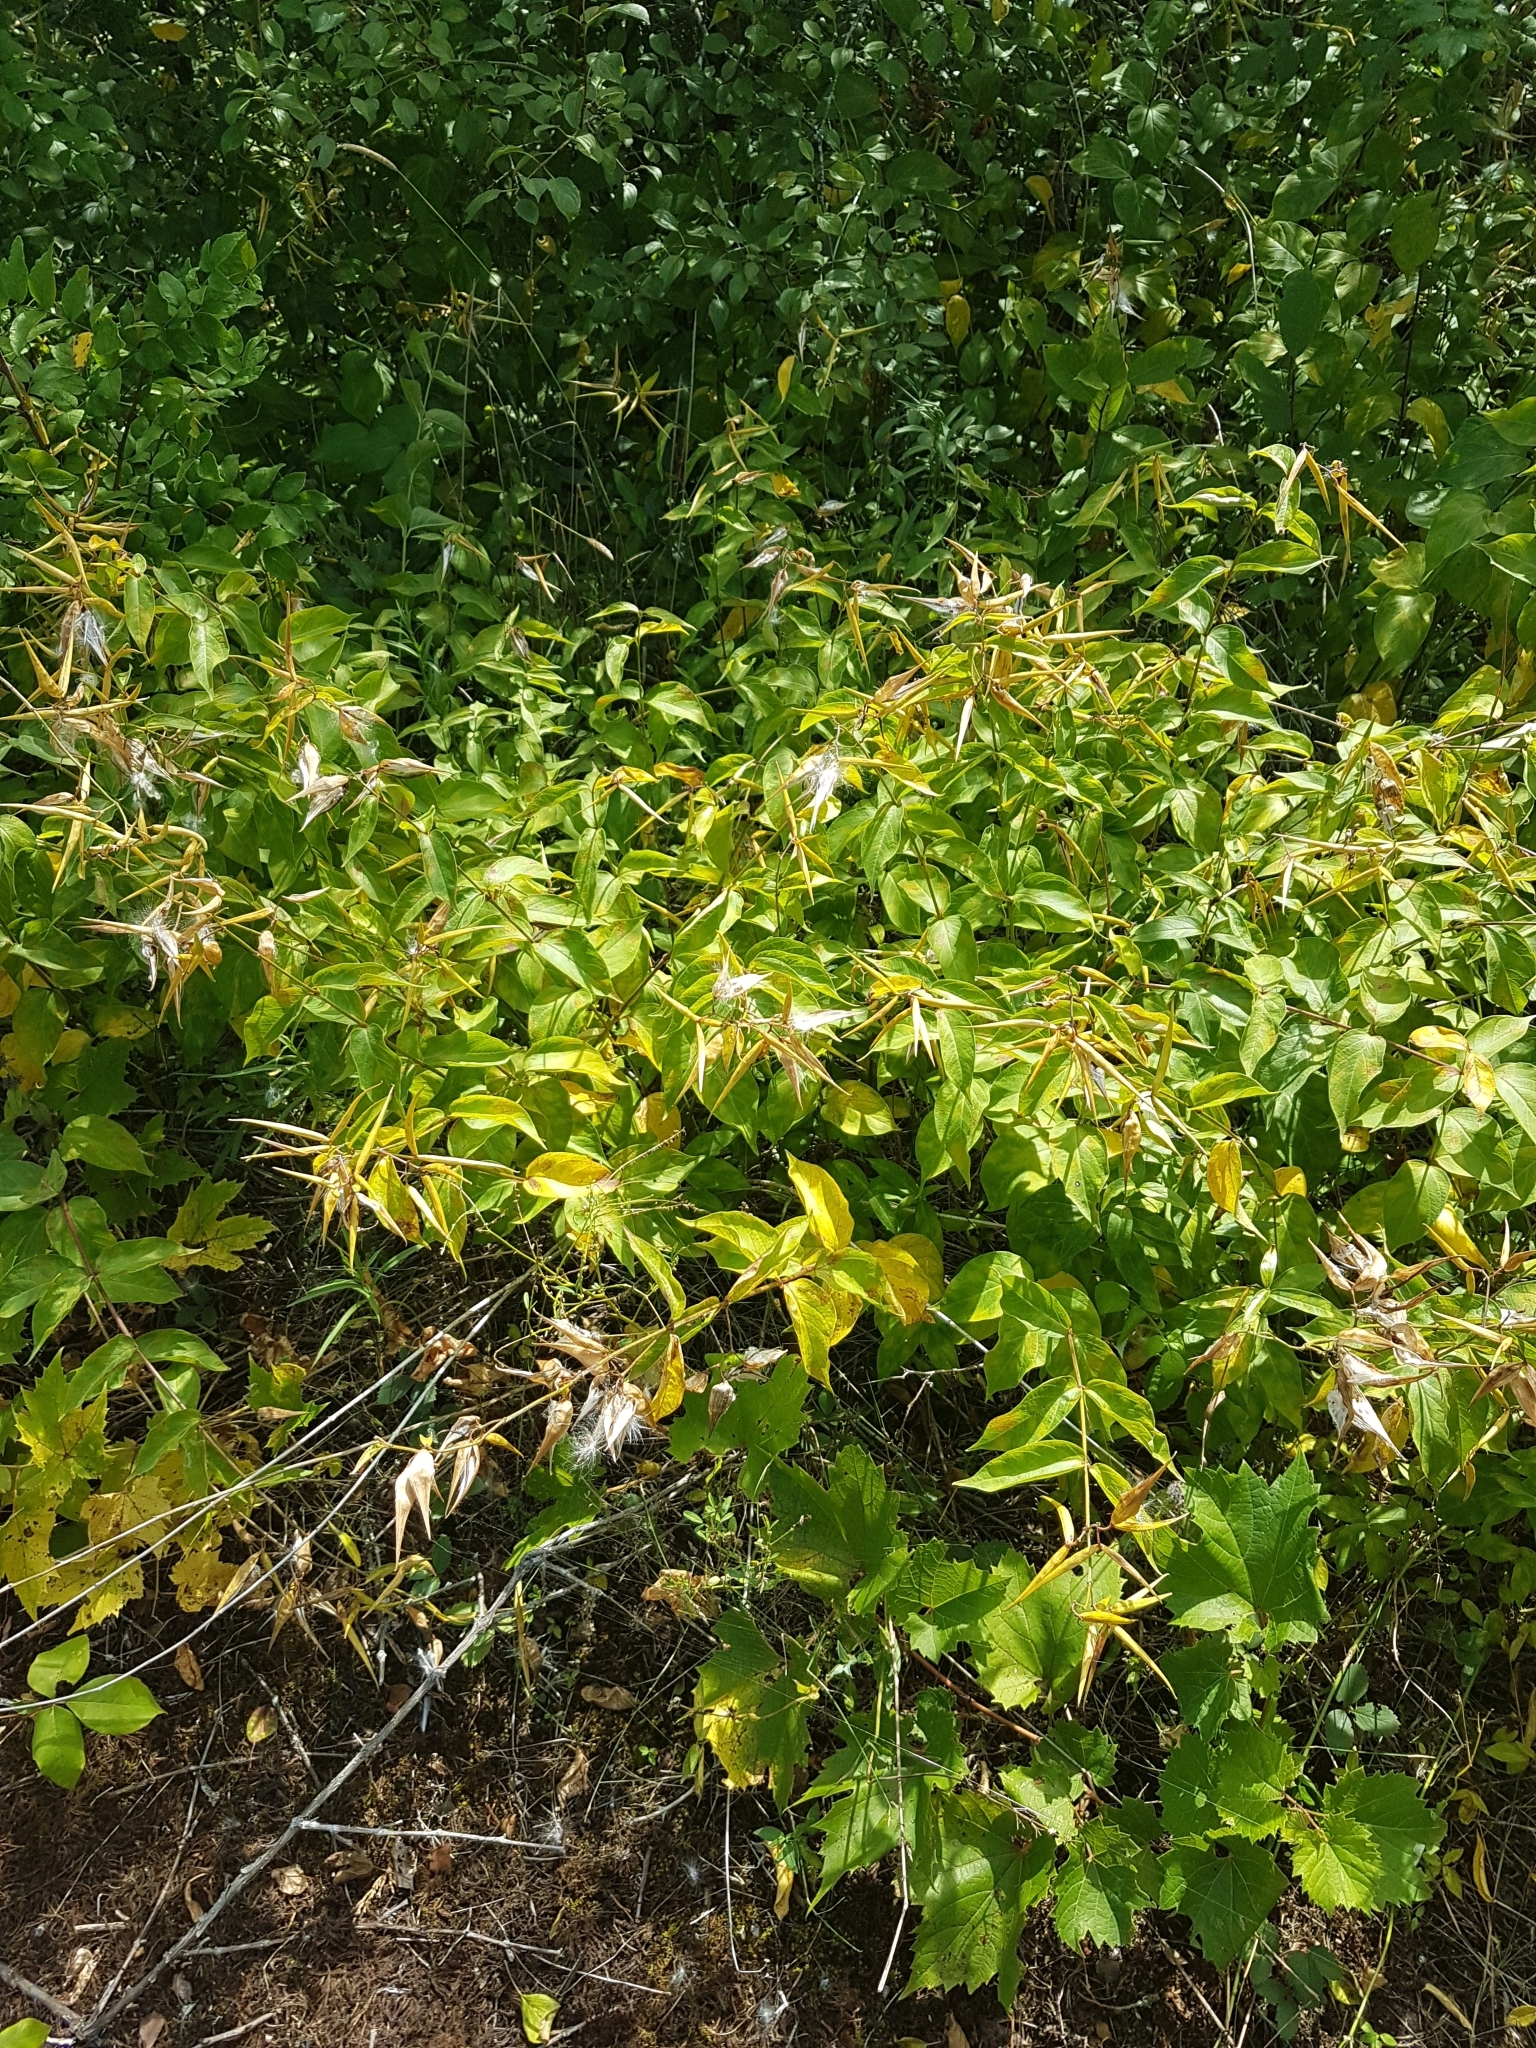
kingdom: Plantae
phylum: Tracheophyta
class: Magnoliopsida
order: Gentianales
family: Apocynaceae
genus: Vincetoxicum
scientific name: Vincetoxicum rossicum
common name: Dog-strangling vine
